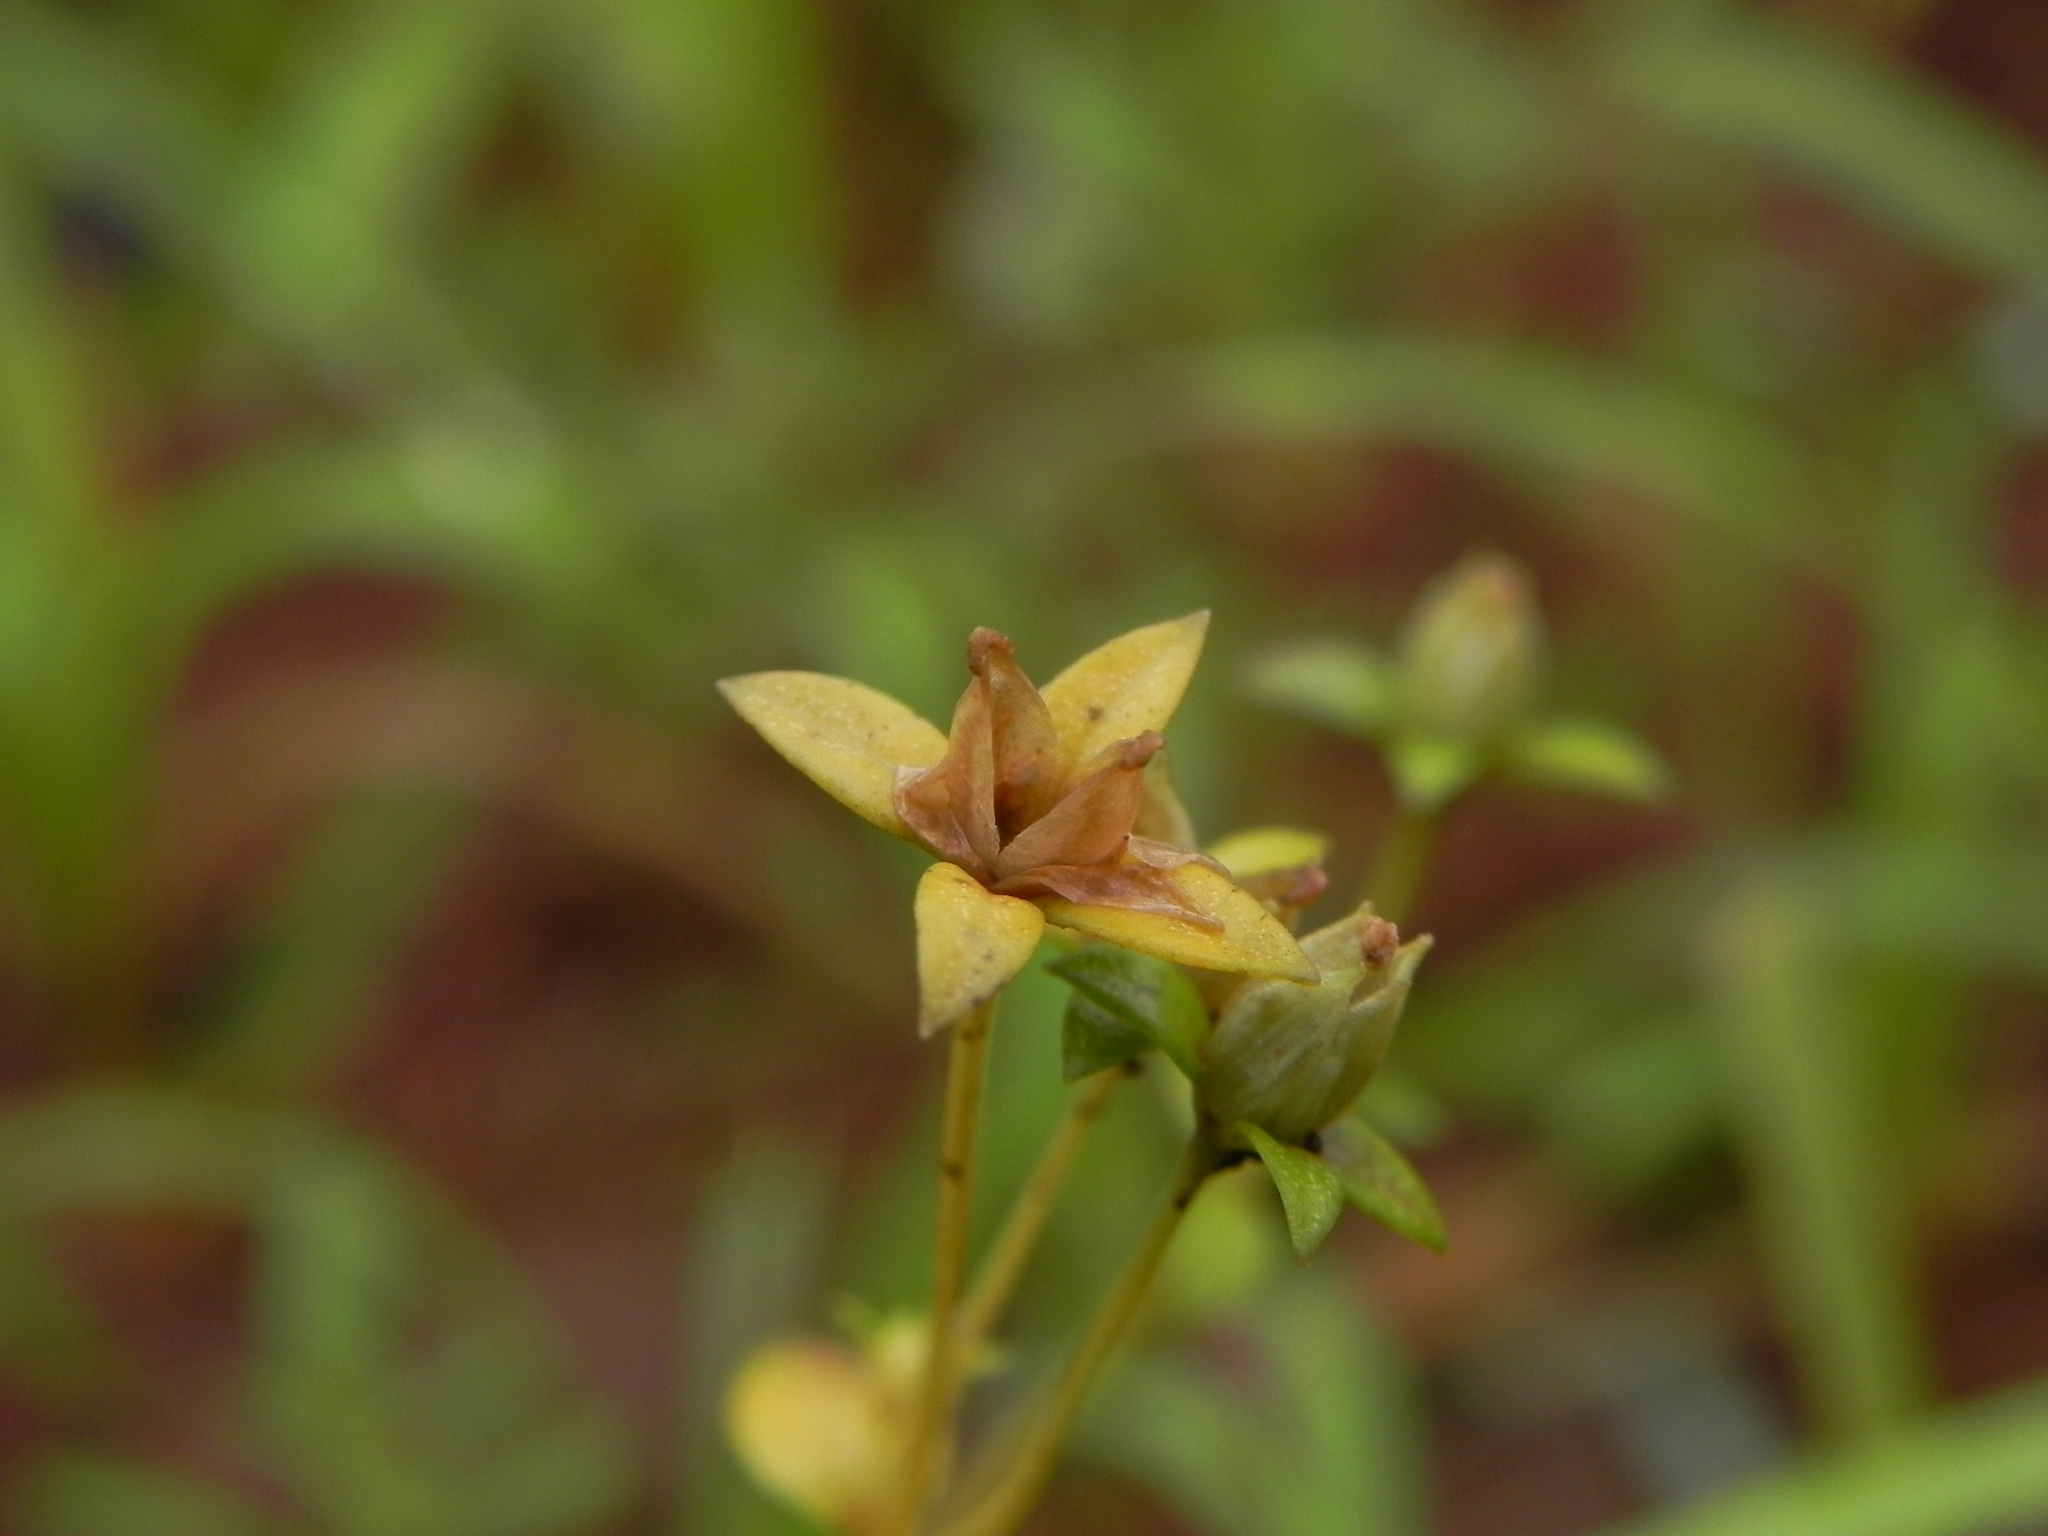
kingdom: Plantae
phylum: Tracheophyta
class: Magnoliopsida
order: Gentianales
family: Gentianaceae
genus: Lomatogonium
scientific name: Lomatogonium minus
